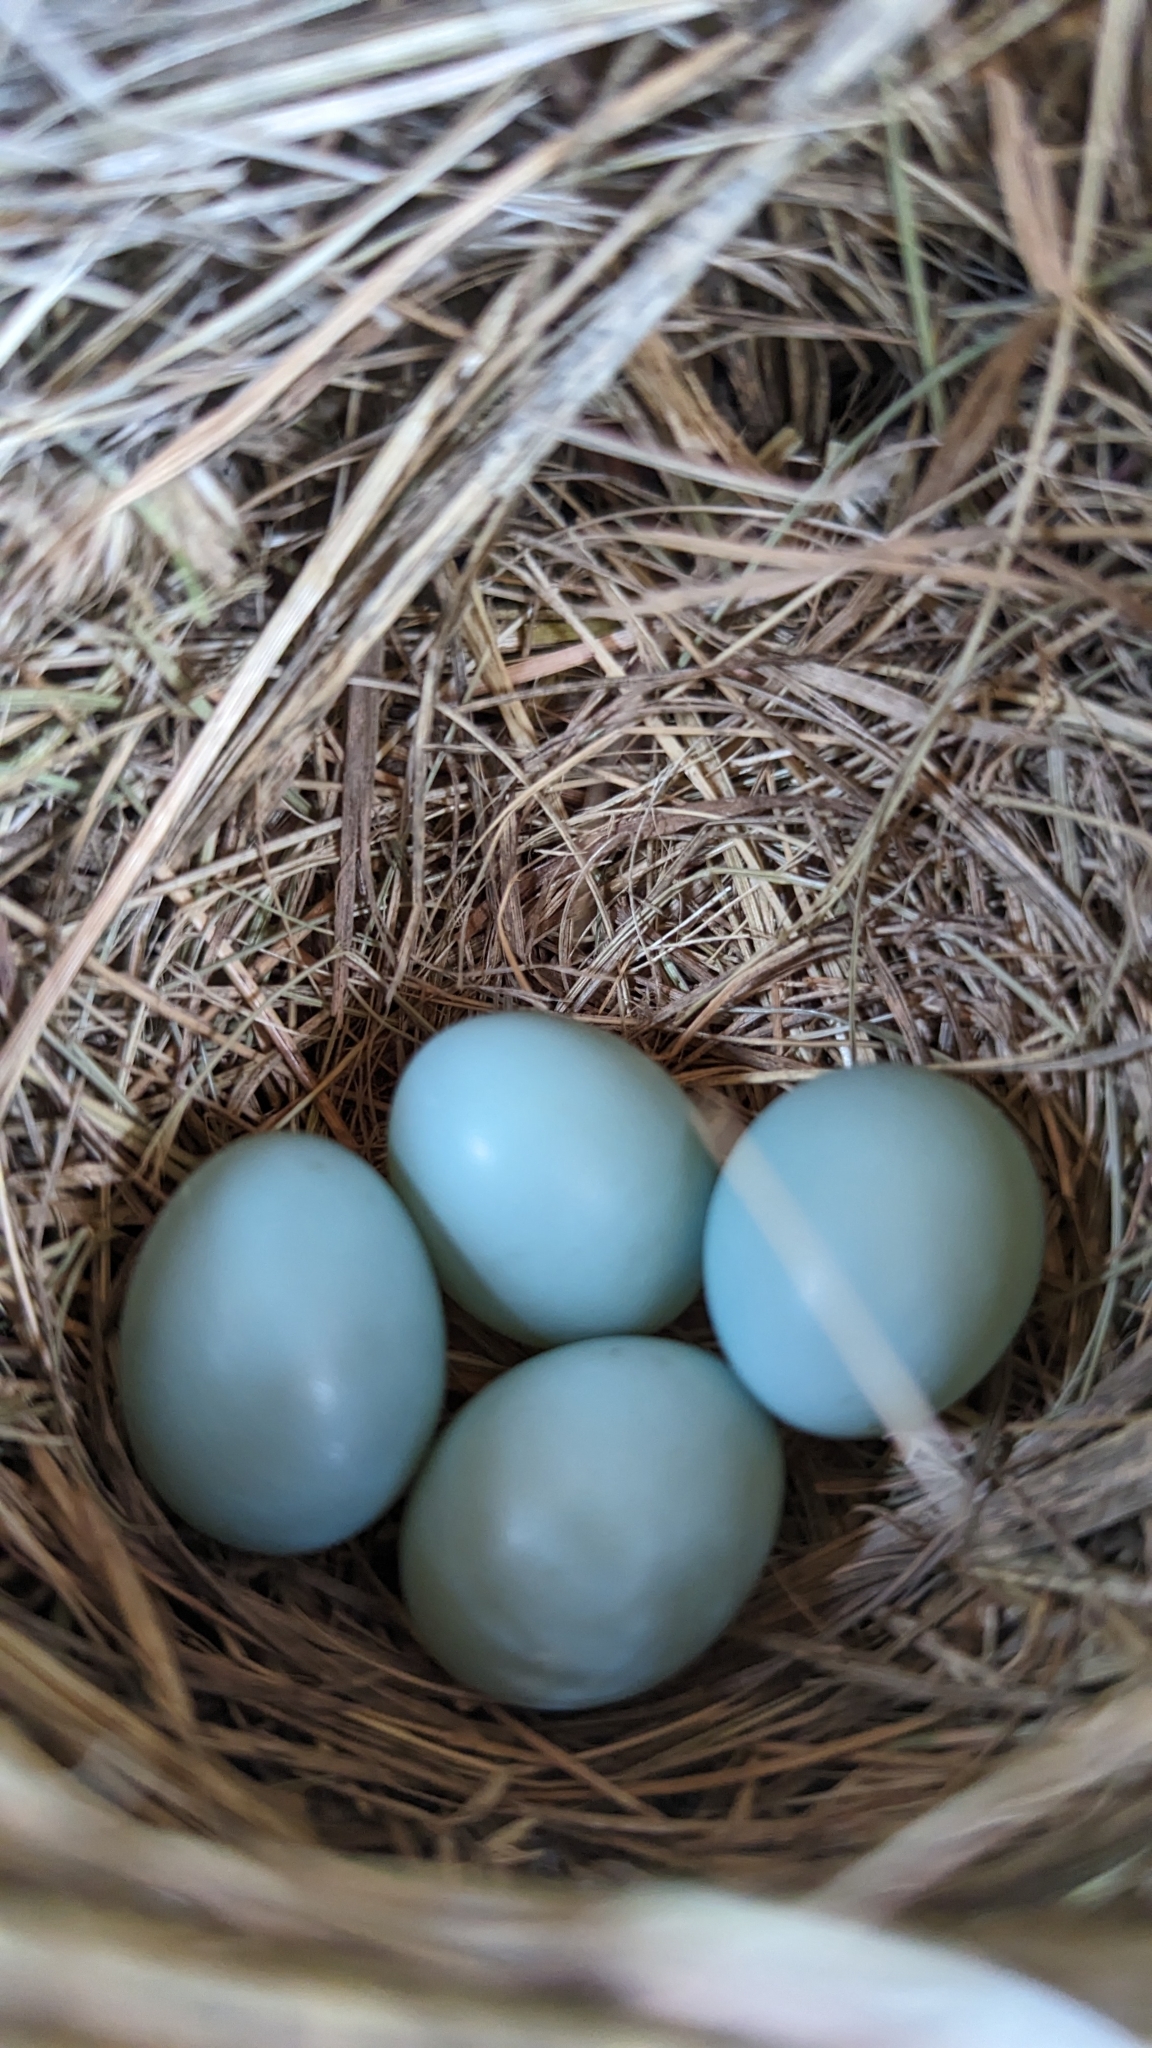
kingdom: Animalia
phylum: Chordata
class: Aves
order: Passeriformes
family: Turdidae
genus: Sialia
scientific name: Sialia sialis
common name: Eastern bluebird
